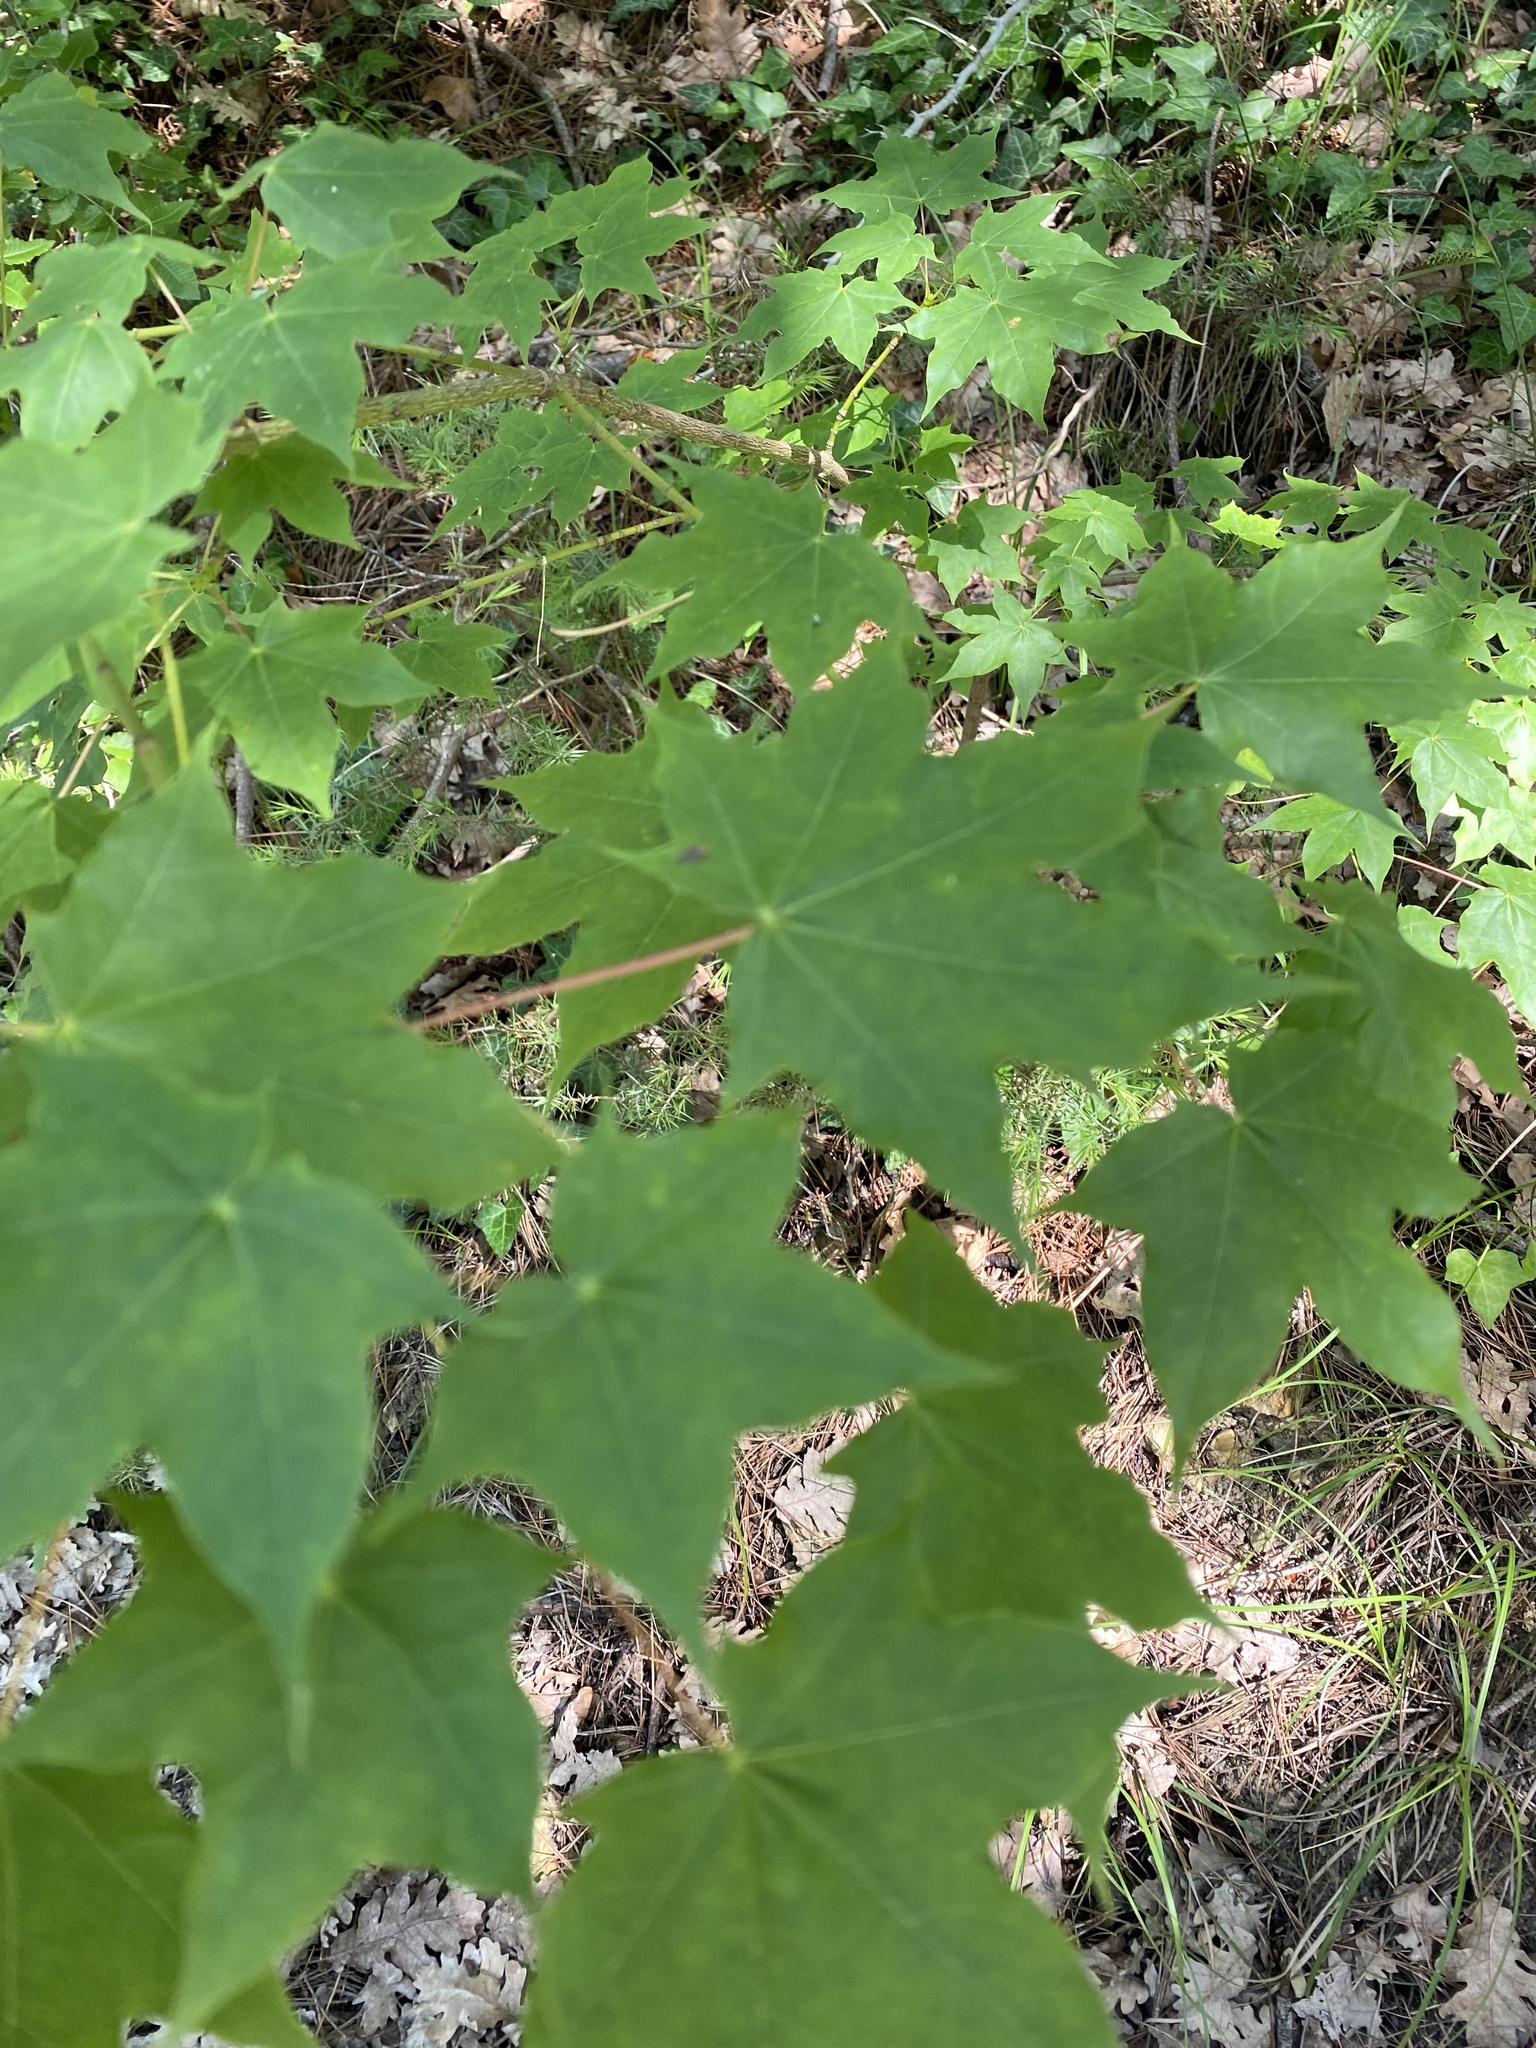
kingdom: Plantae
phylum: Tracheophyta
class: Magnoliopsida
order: Sapindales
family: Sapindaceae
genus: Acer
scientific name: Acer platanoides
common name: Norway maple
